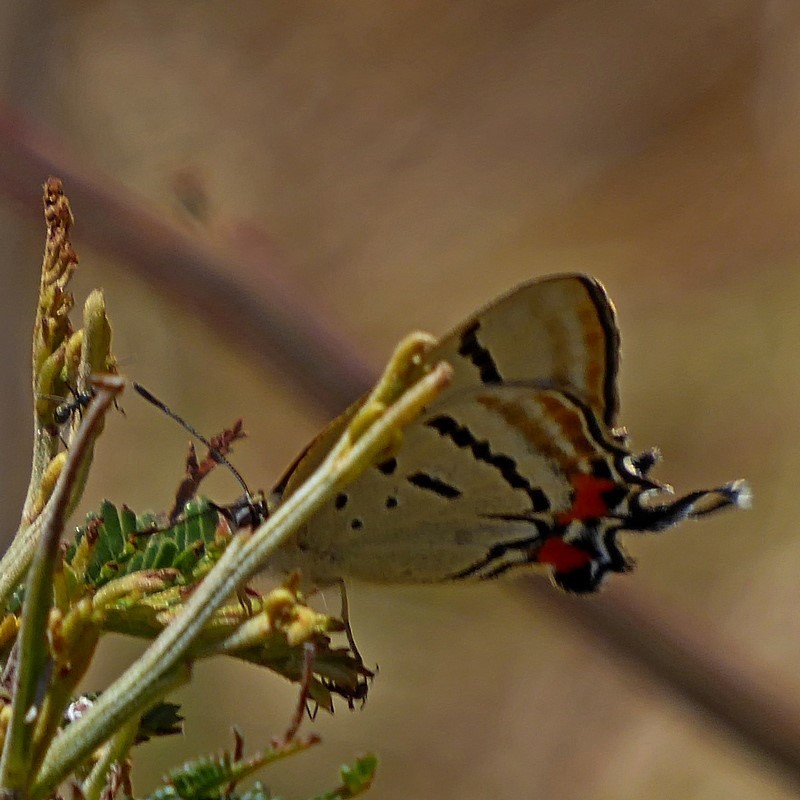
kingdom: Animalia
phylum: Arthropoda
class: Insecta
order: Lepidoptera
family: Lycaenidae
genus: Jalmenus
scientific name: Jalmenus evagoras
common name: Common imperial blue
